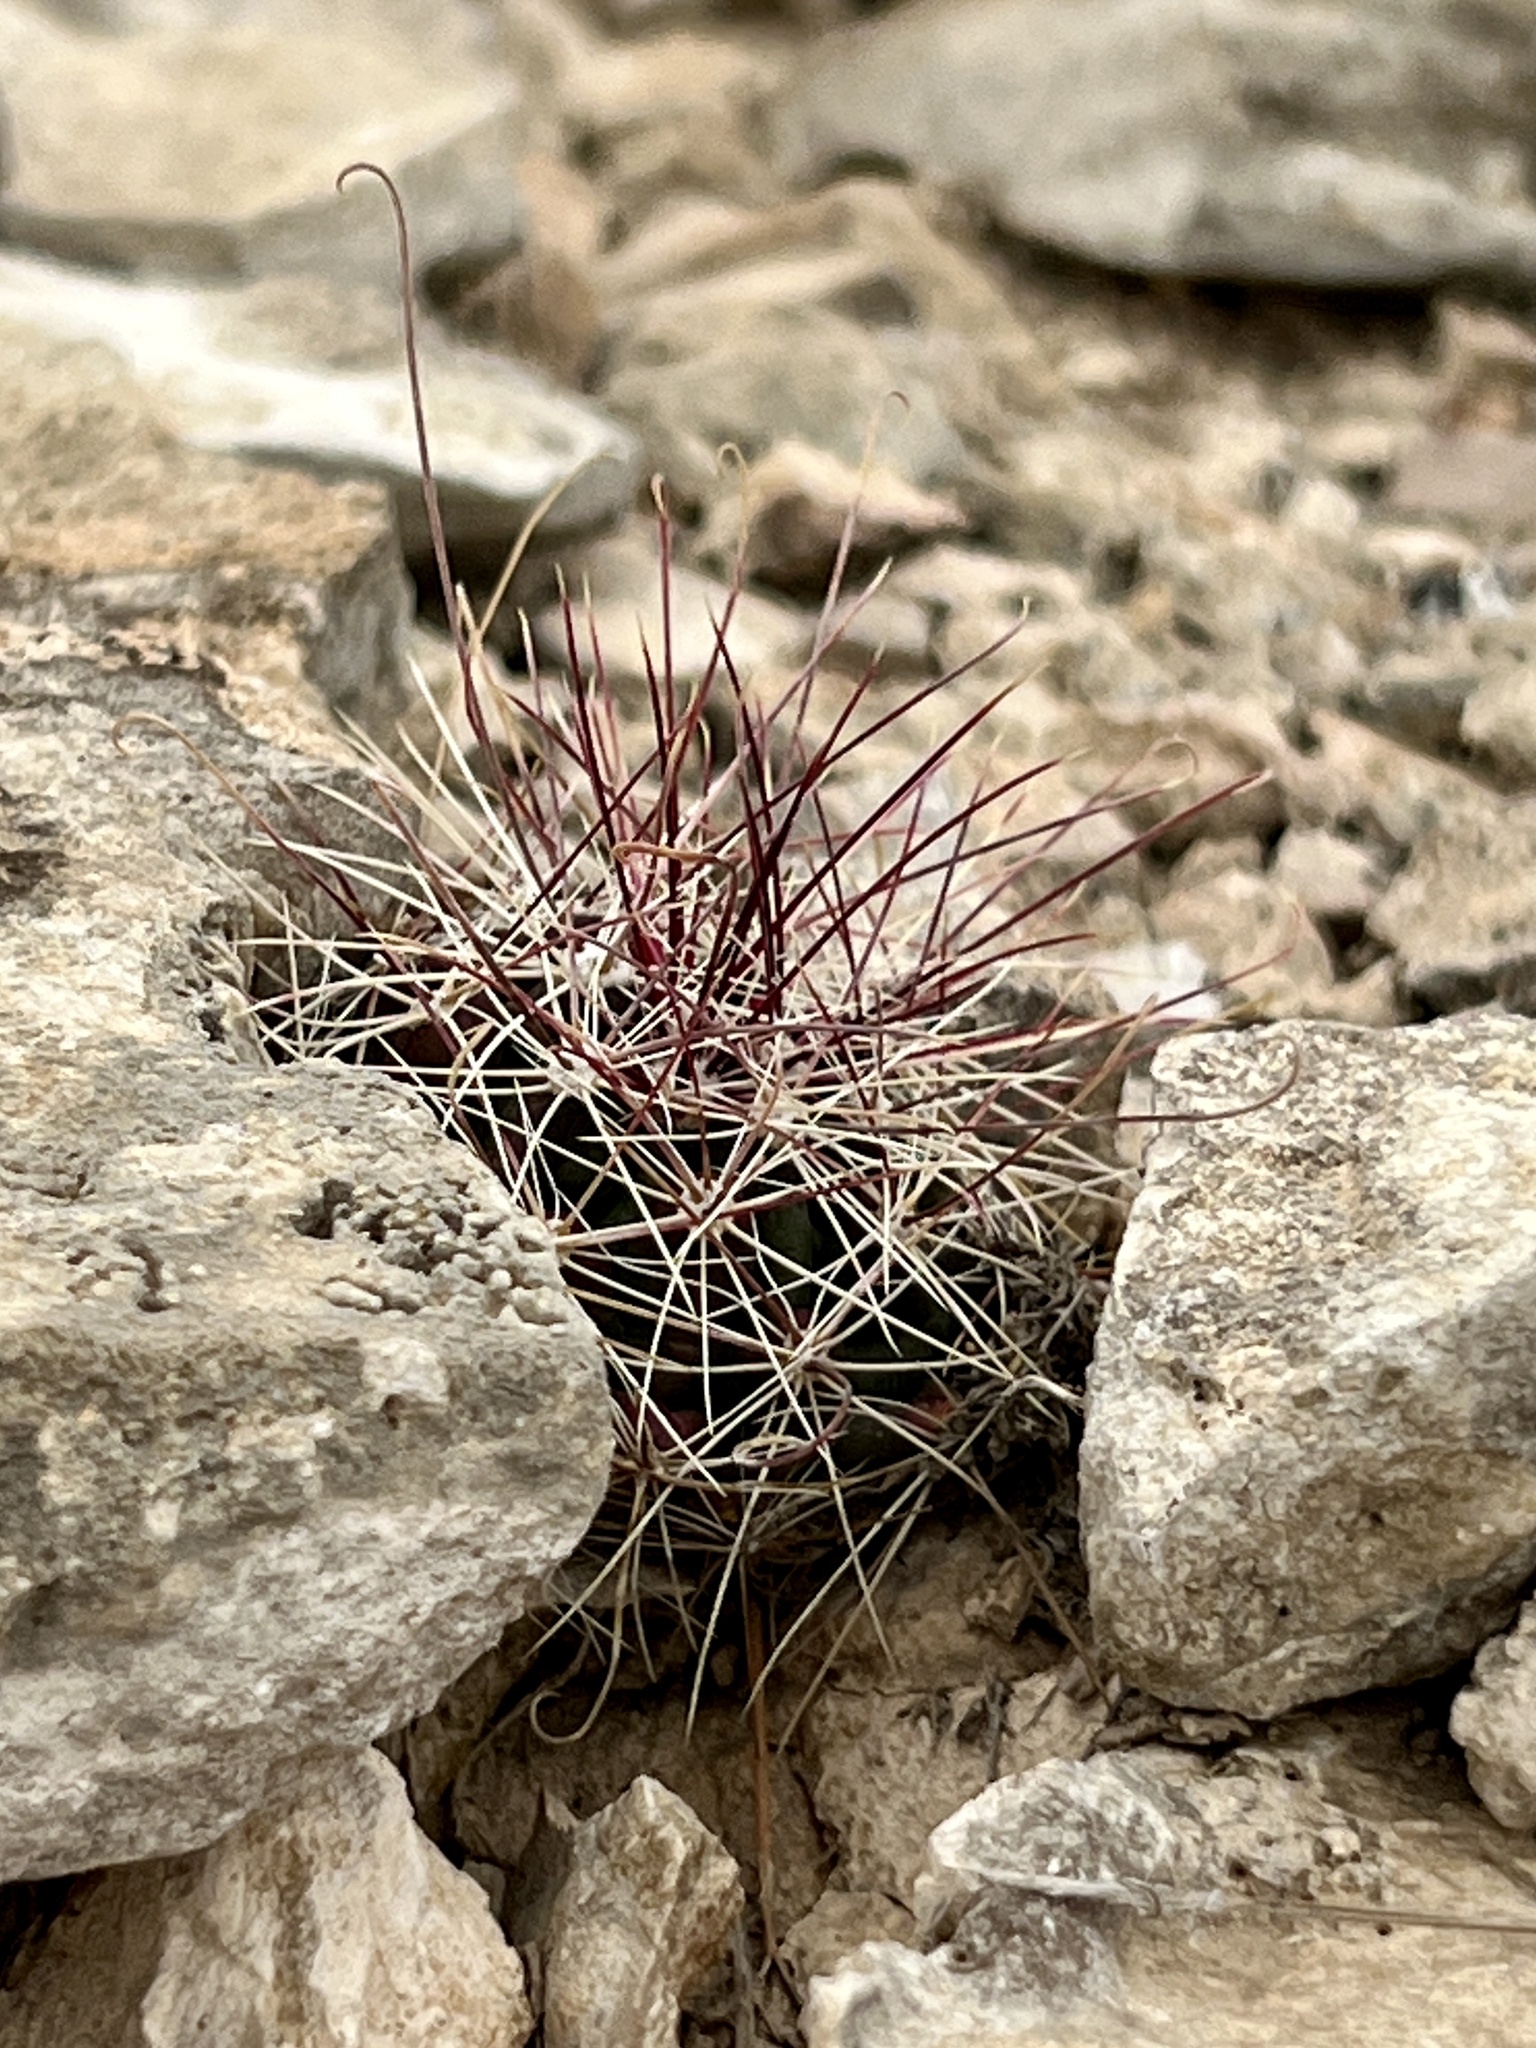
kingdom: Plantae
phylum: Tracheophyta
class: Magnoliopsida
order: Caryophyllales
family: Cactaceae
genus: Bisnaga
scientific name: Bisnaga hamatacantha
